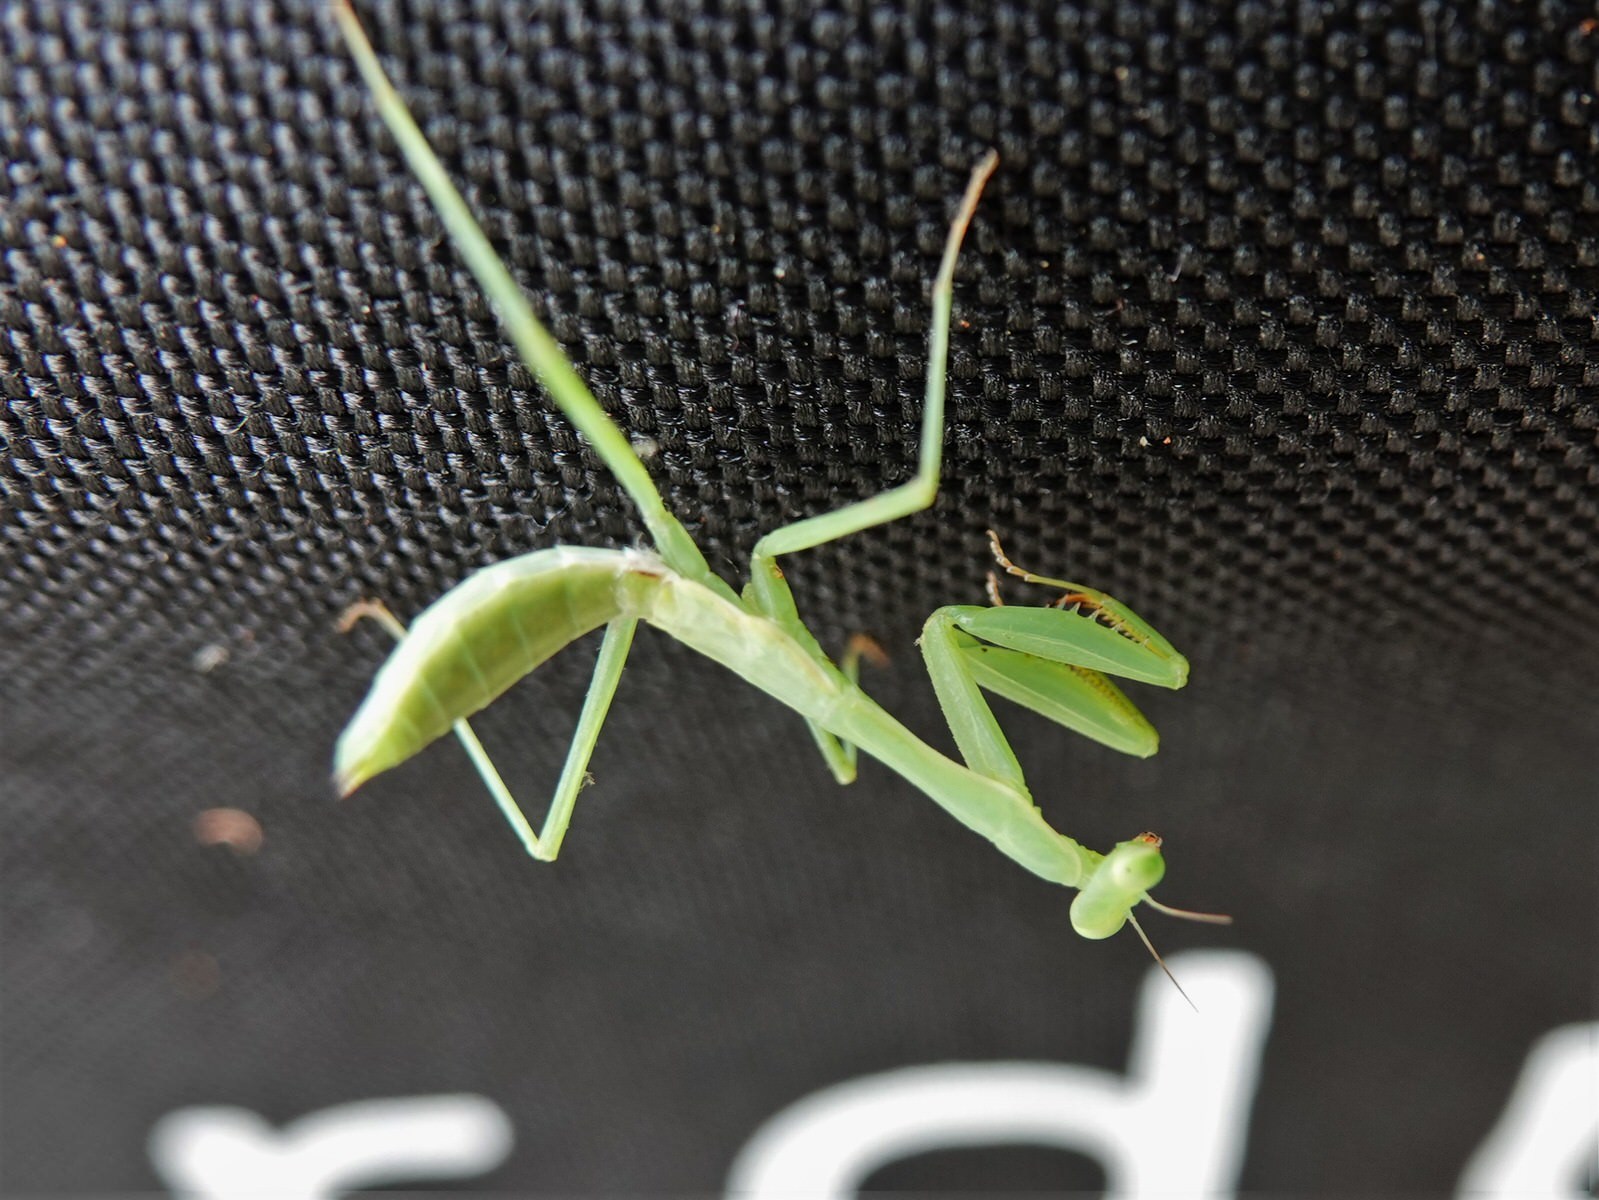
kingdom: Animalia
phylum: Arthropoda
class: Insecta
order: Mantodea
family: Miomantidae
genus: Miomantis
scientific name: Miomantis caffra
